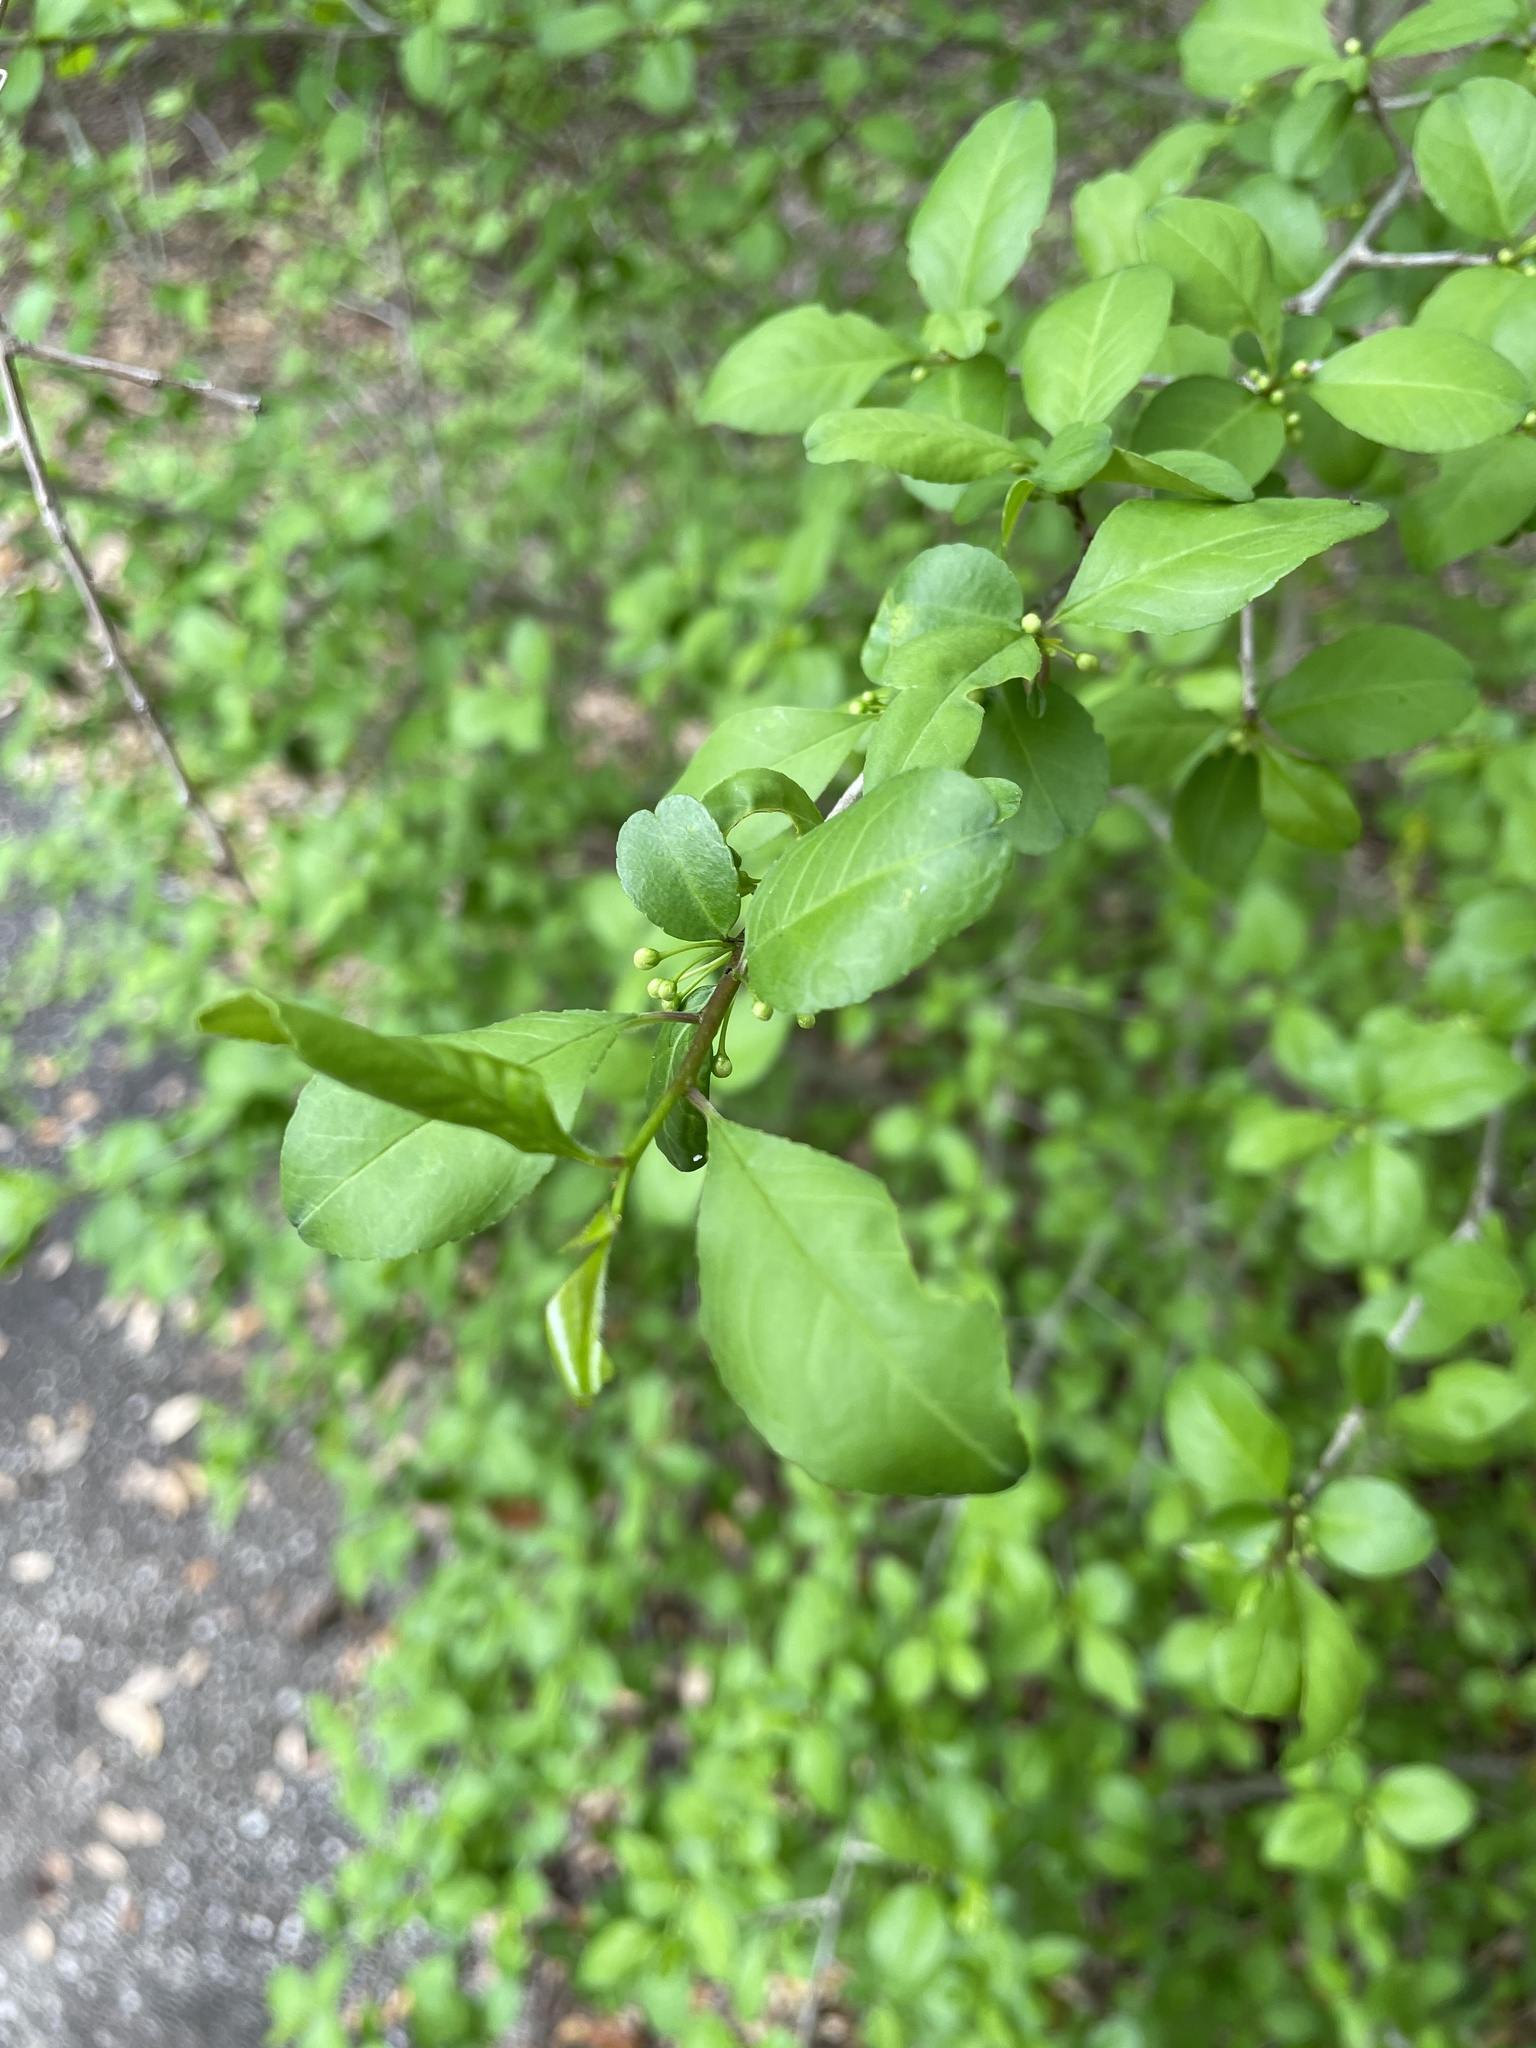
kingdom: Plantae
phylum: Tracheophyta
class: Magnoliopsida
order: Aquifoliales
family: Aquifoliaceae
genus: Ilex
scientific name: Ilex decidua
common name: Possum-haw
